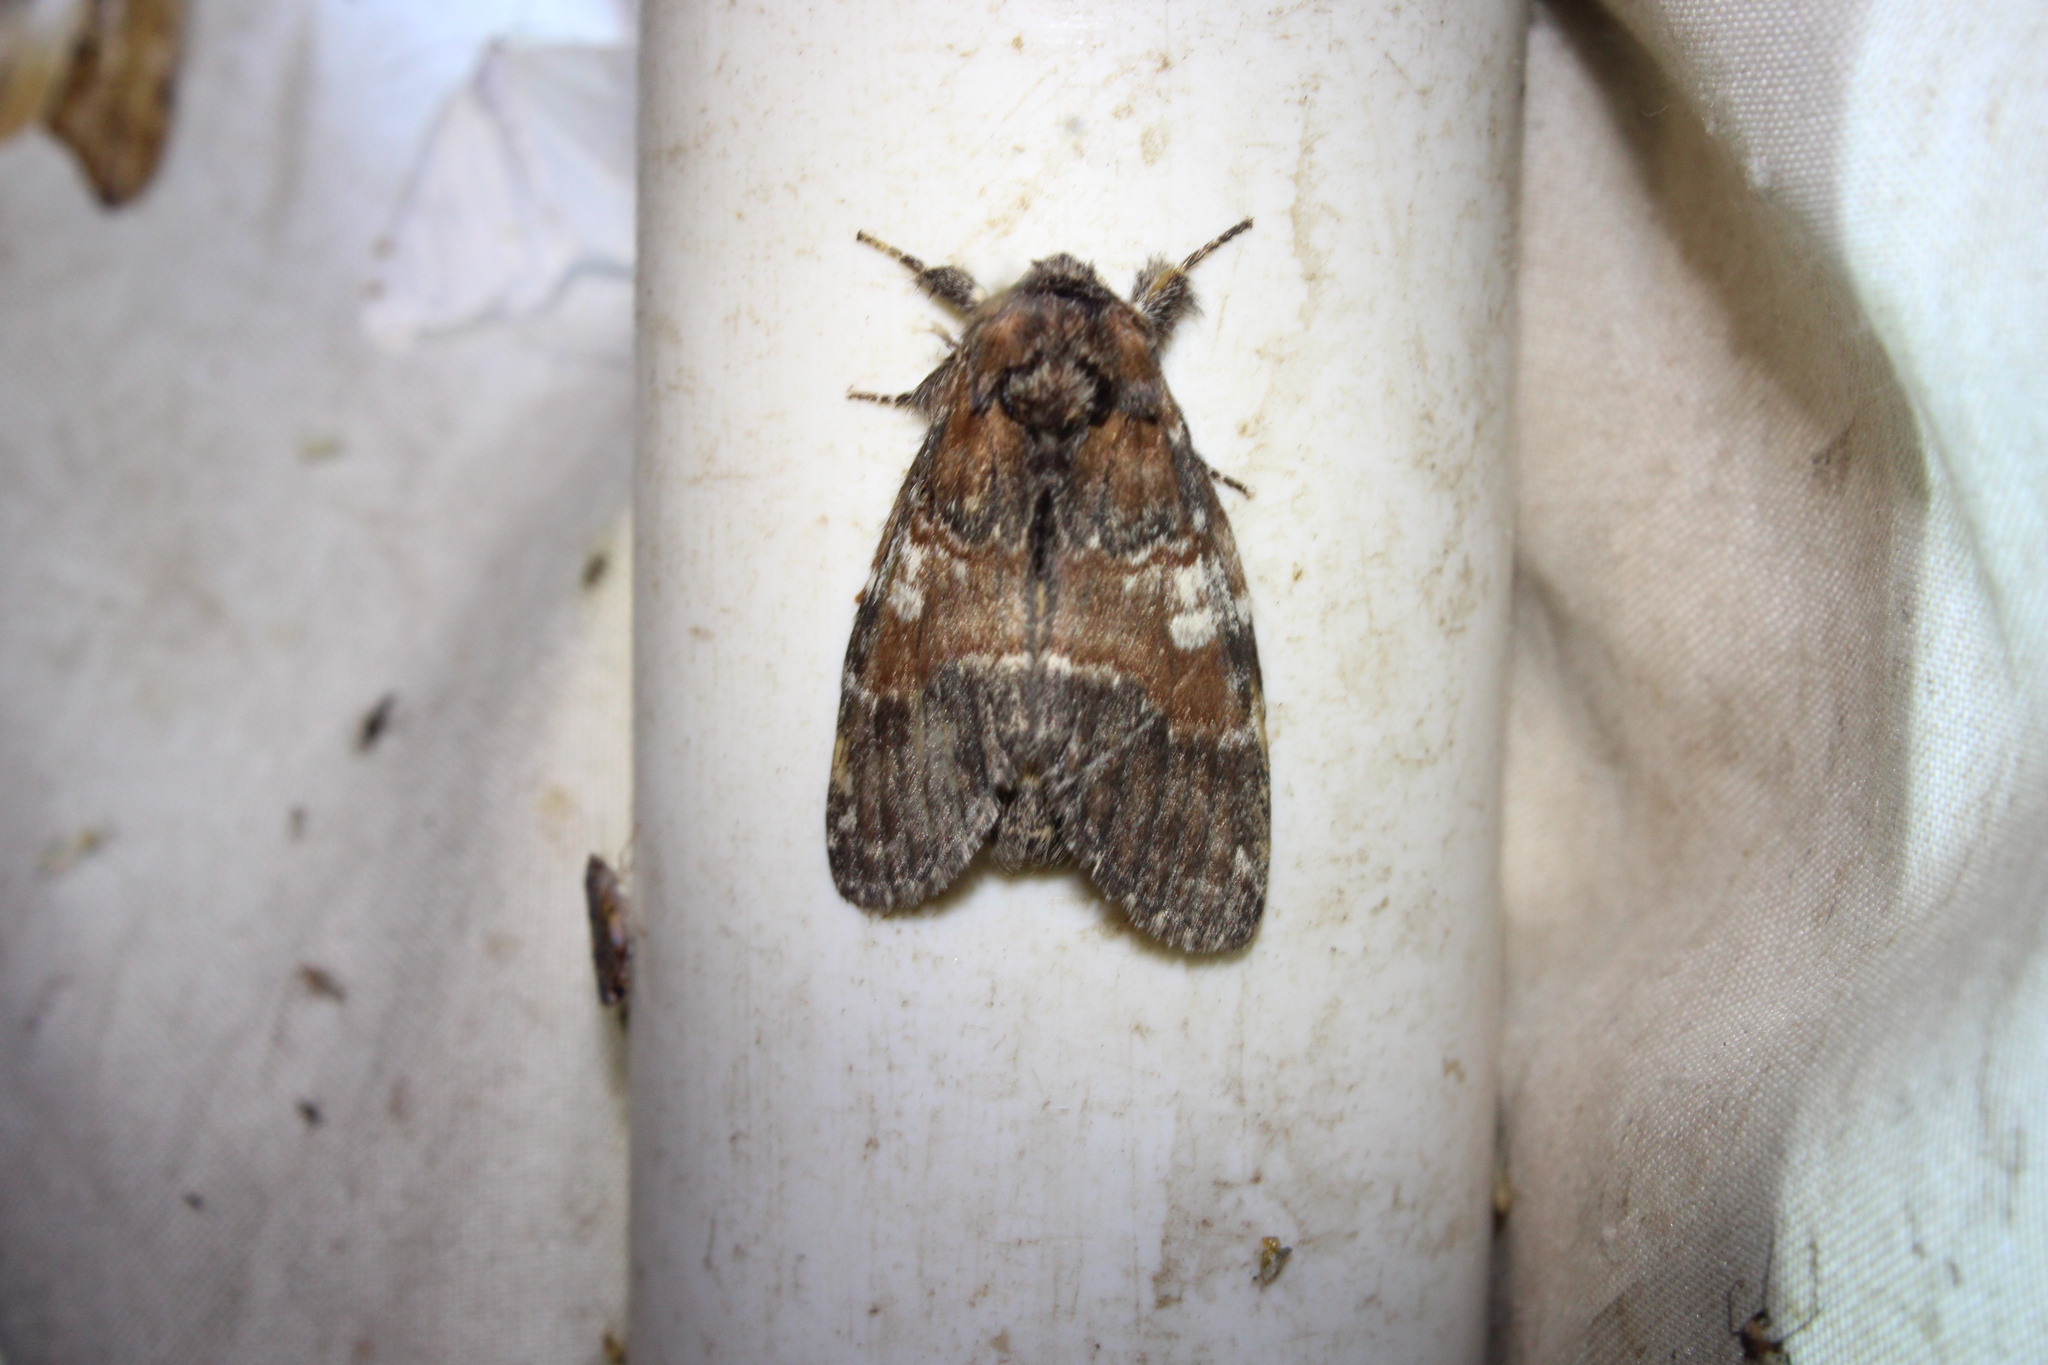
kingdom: Animalia
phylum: Arthropoda
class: Insecta
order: Lepidoptera
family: Notodontidae
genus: Peridea
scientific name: Peridea ferruginea
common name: Chocolate prominent
